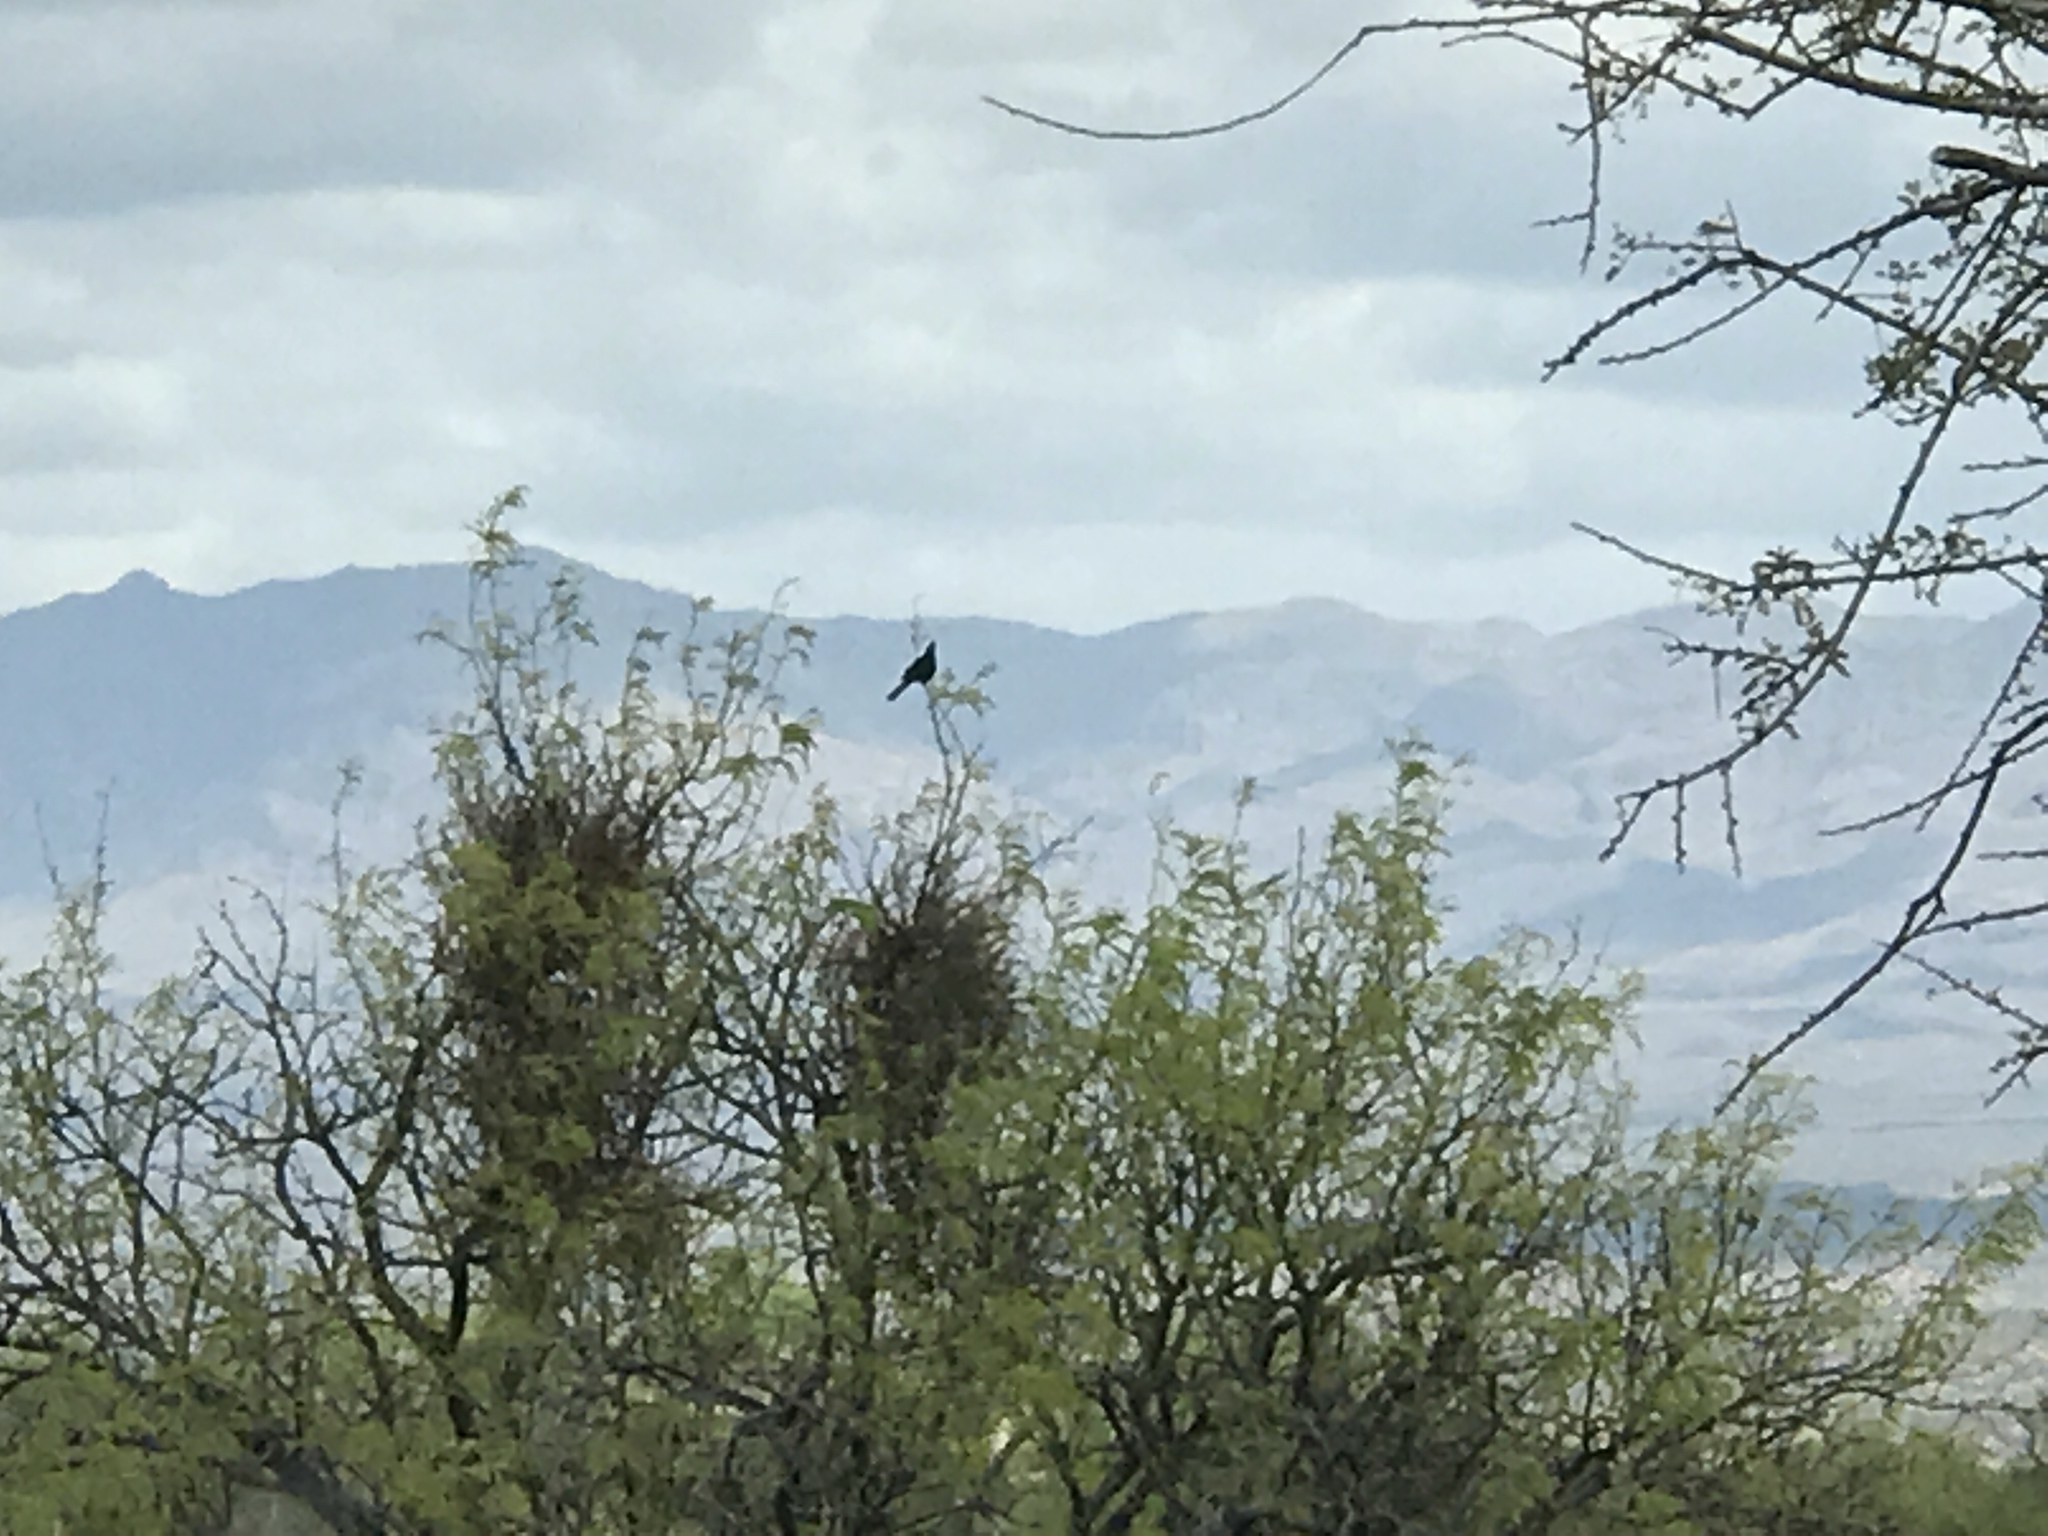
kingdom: Animalia
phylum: Chordata
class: Aves
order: Passeriformes
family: Ptilogonatidae
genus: Phainopepla
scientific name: Phainopepla nitens
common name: Phainopepla
